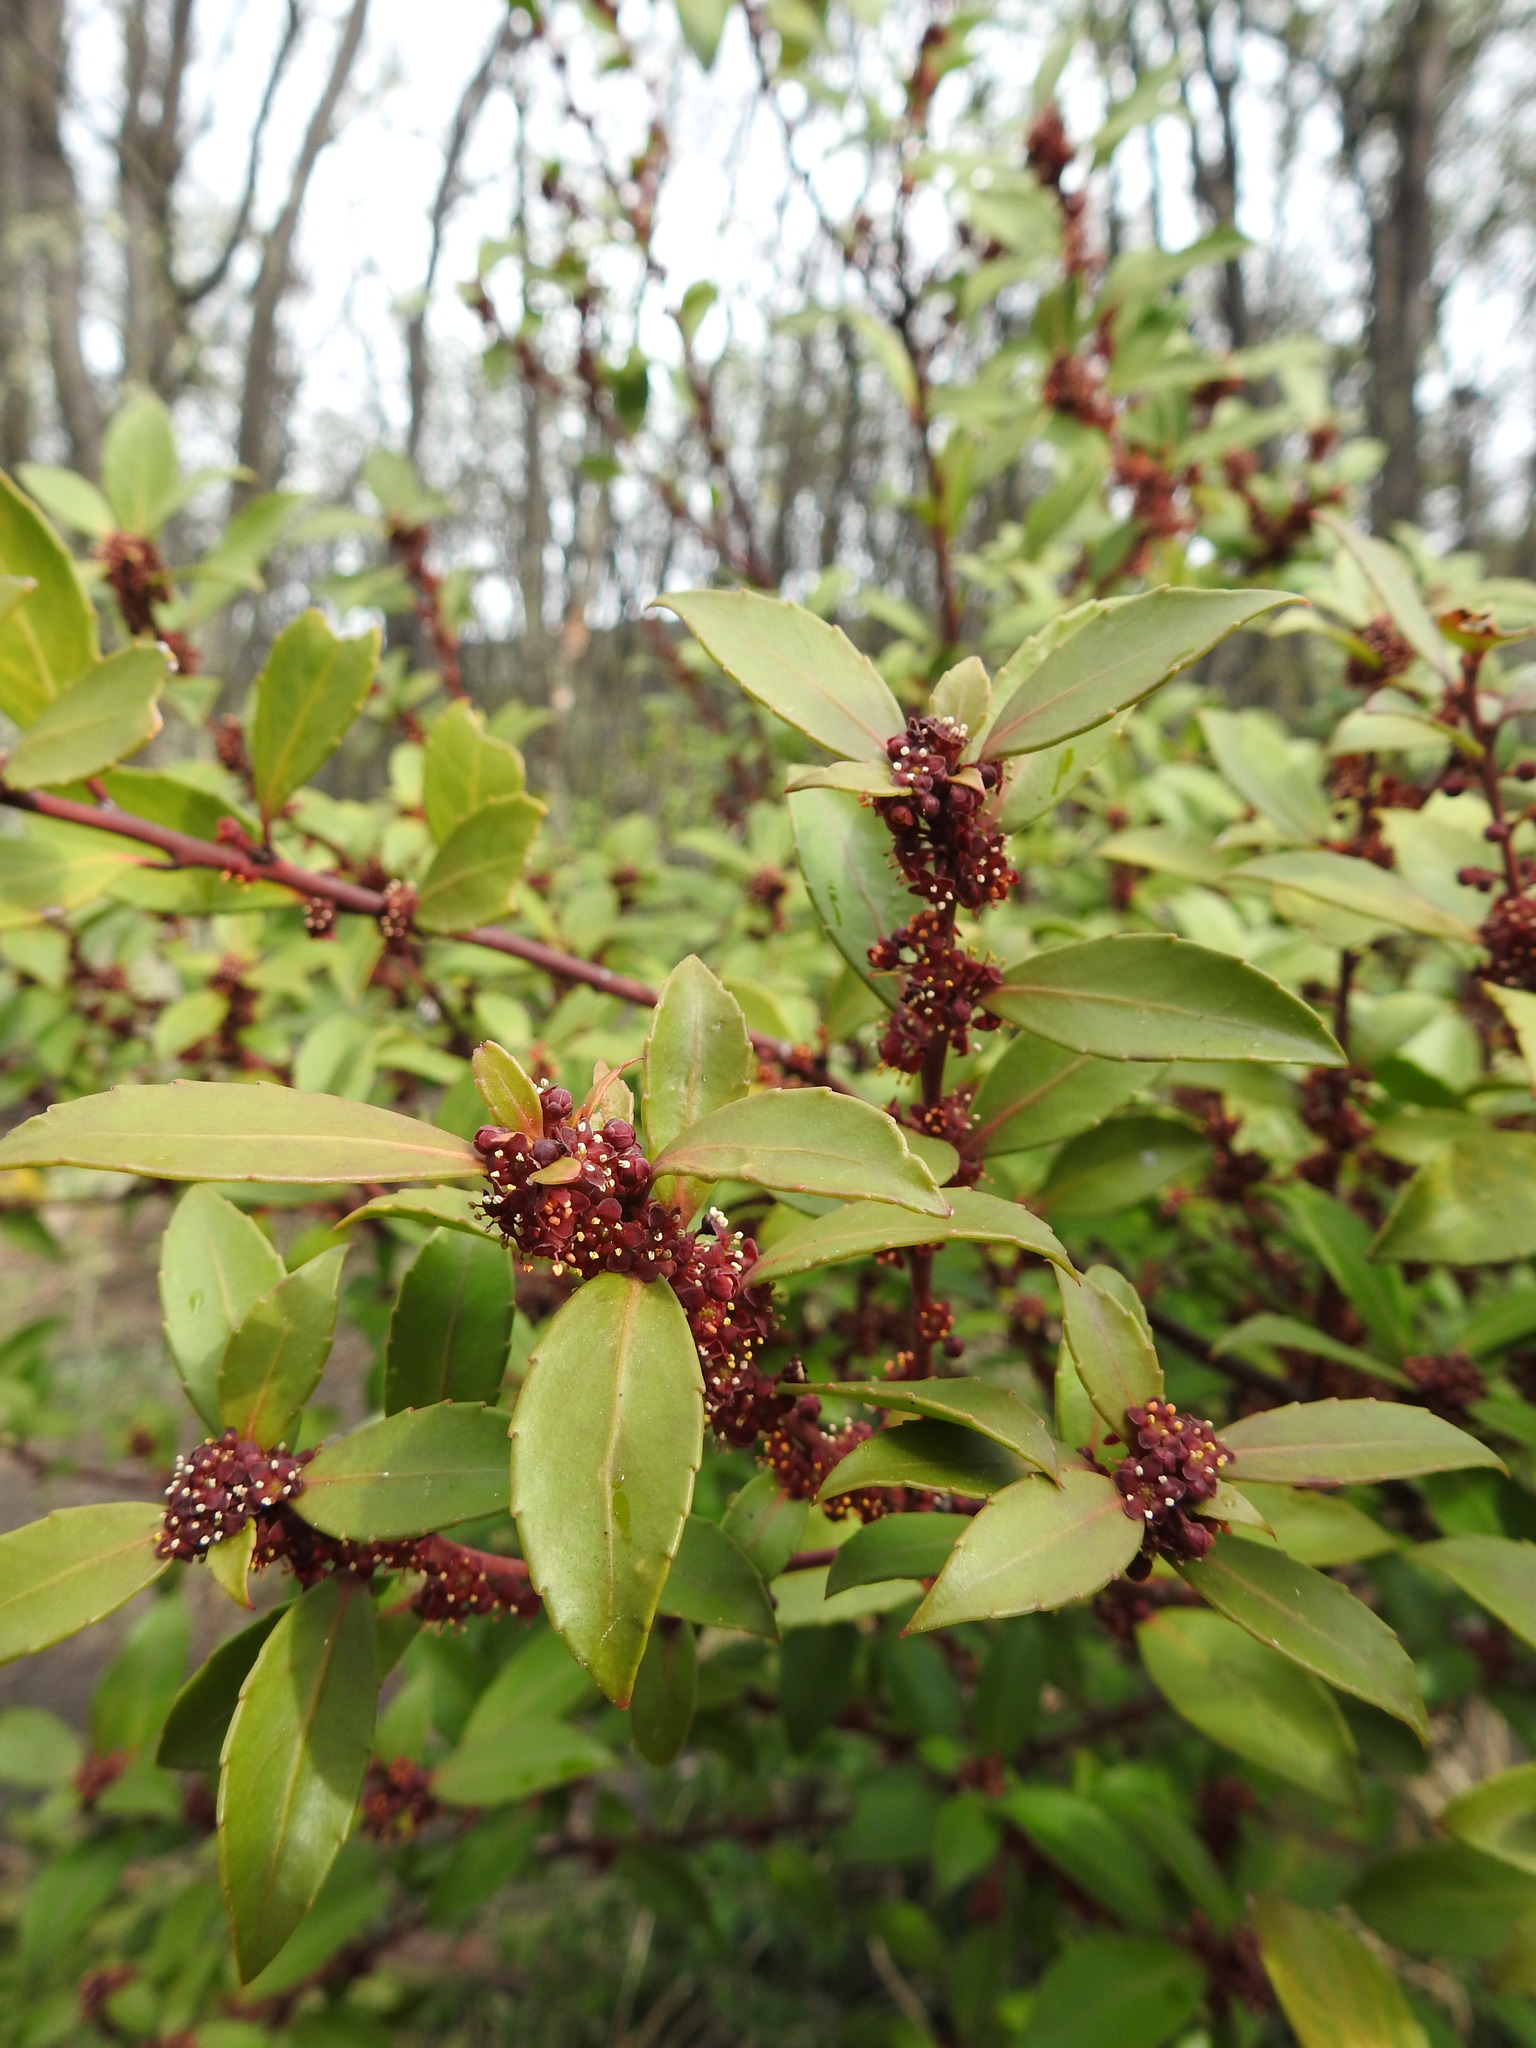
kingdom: Plantae
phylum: Tracheophyta
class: Magnoliopsida
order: Celastrales
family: Celastraceae
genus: Maytenus
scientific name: Maytenus magellanica
